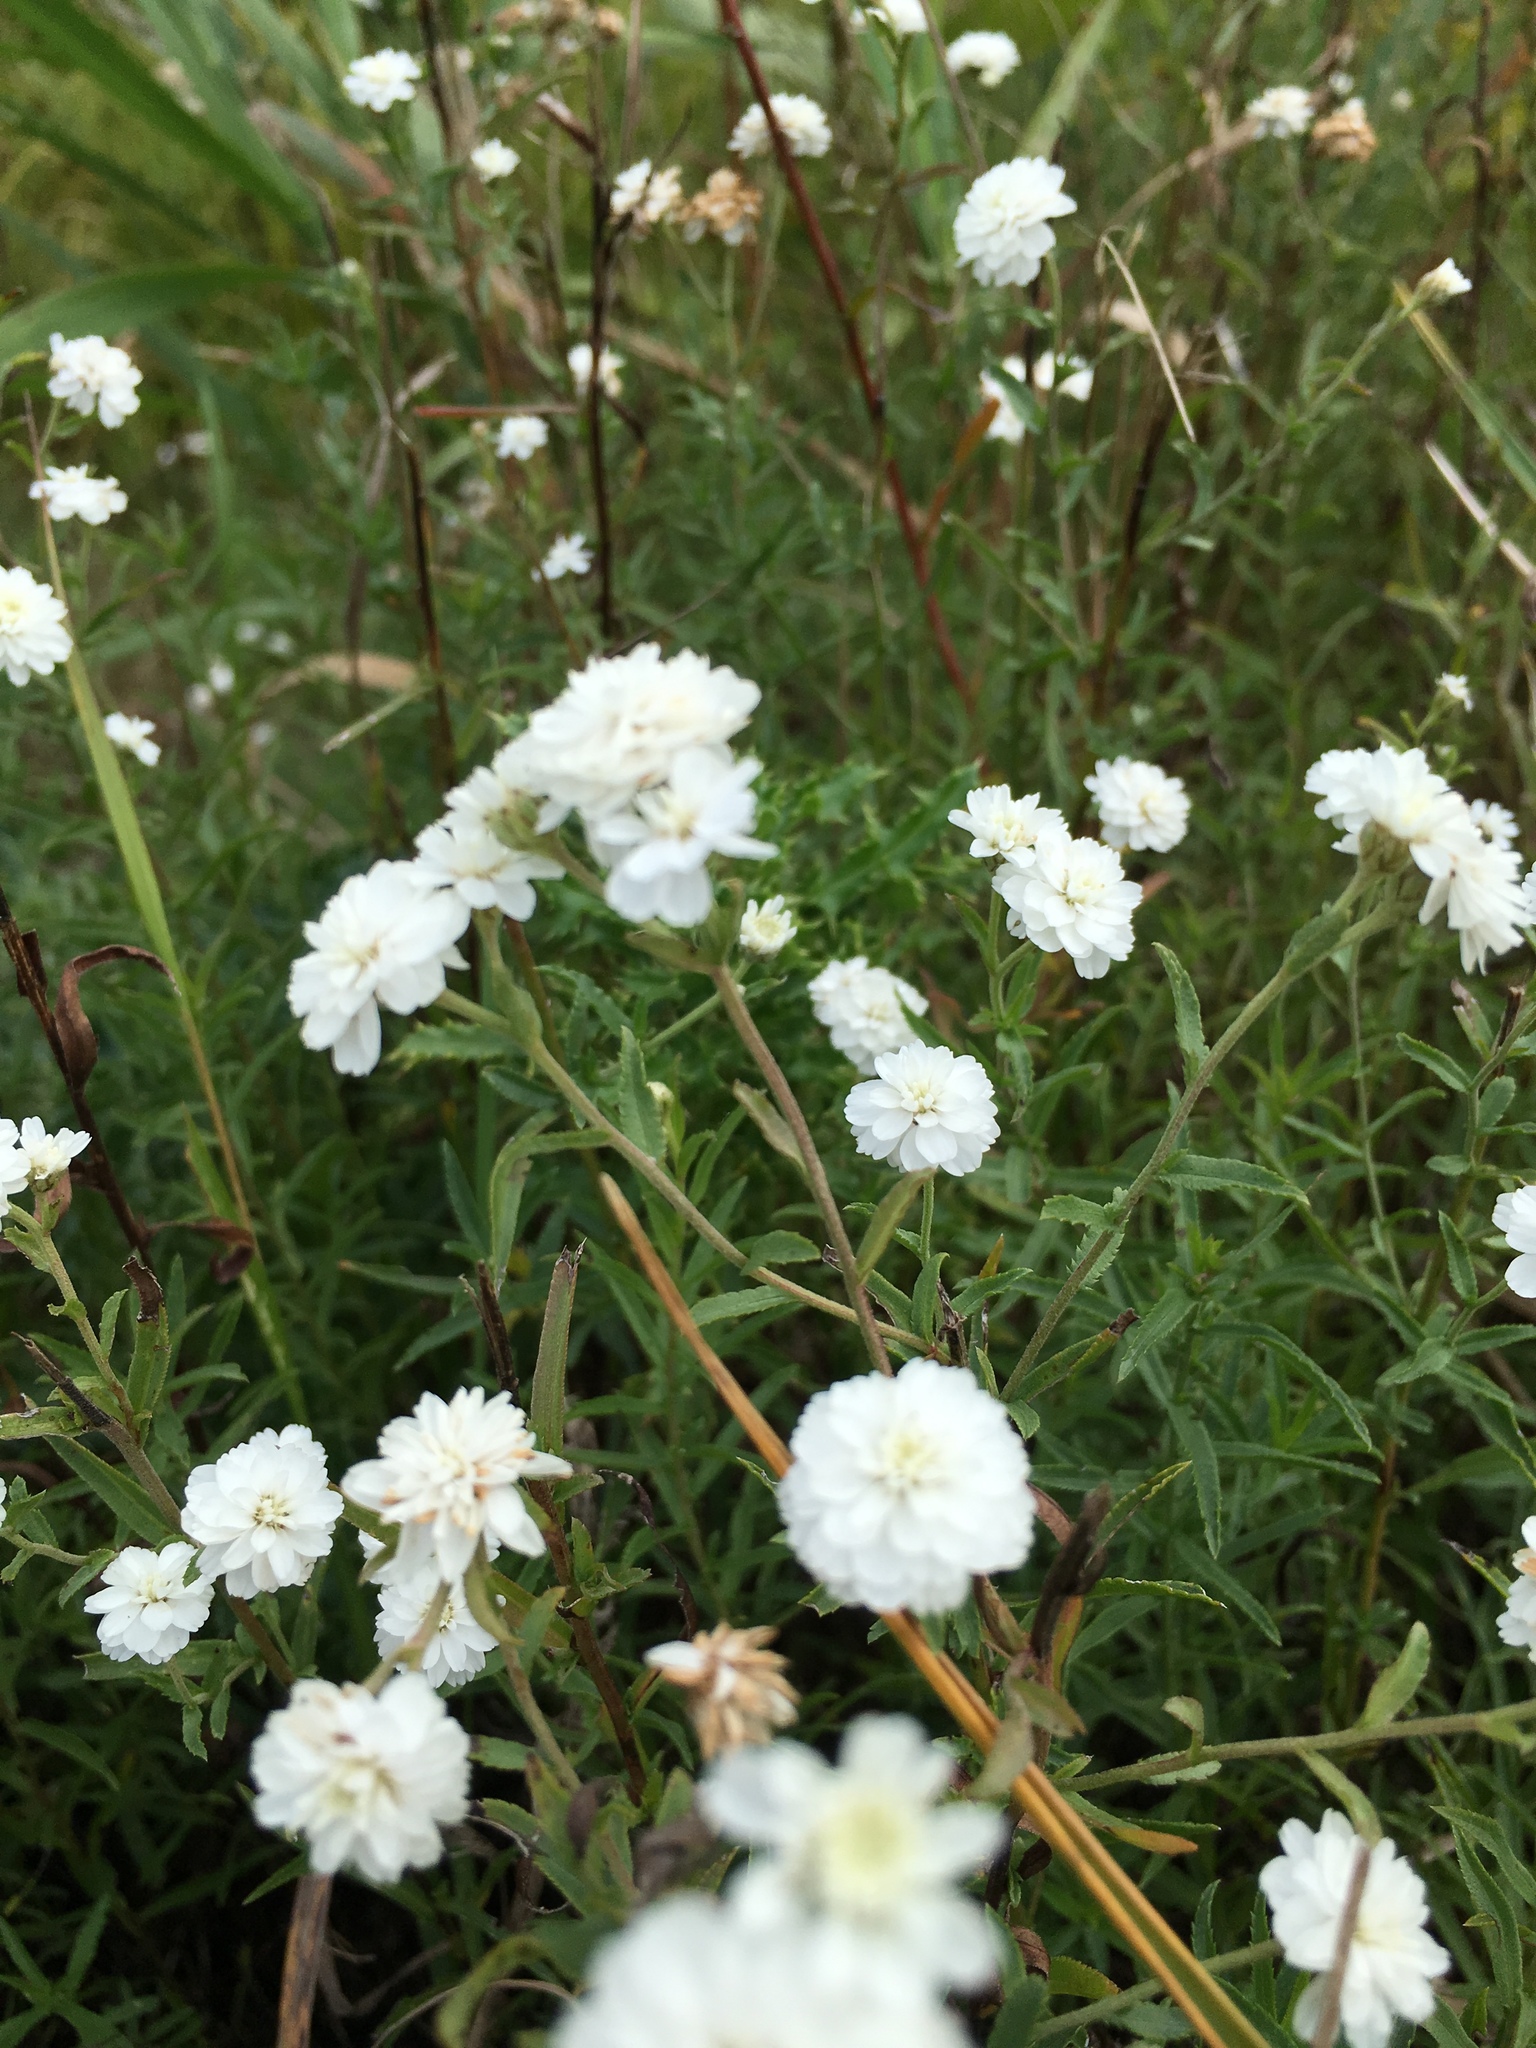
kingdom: Plantae
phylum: Tracheophyta
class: Magnoliopsida
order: Asterales
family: Asteraceae
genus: Achillea
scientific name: Achillea ptarmica
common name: Sneezeweed
